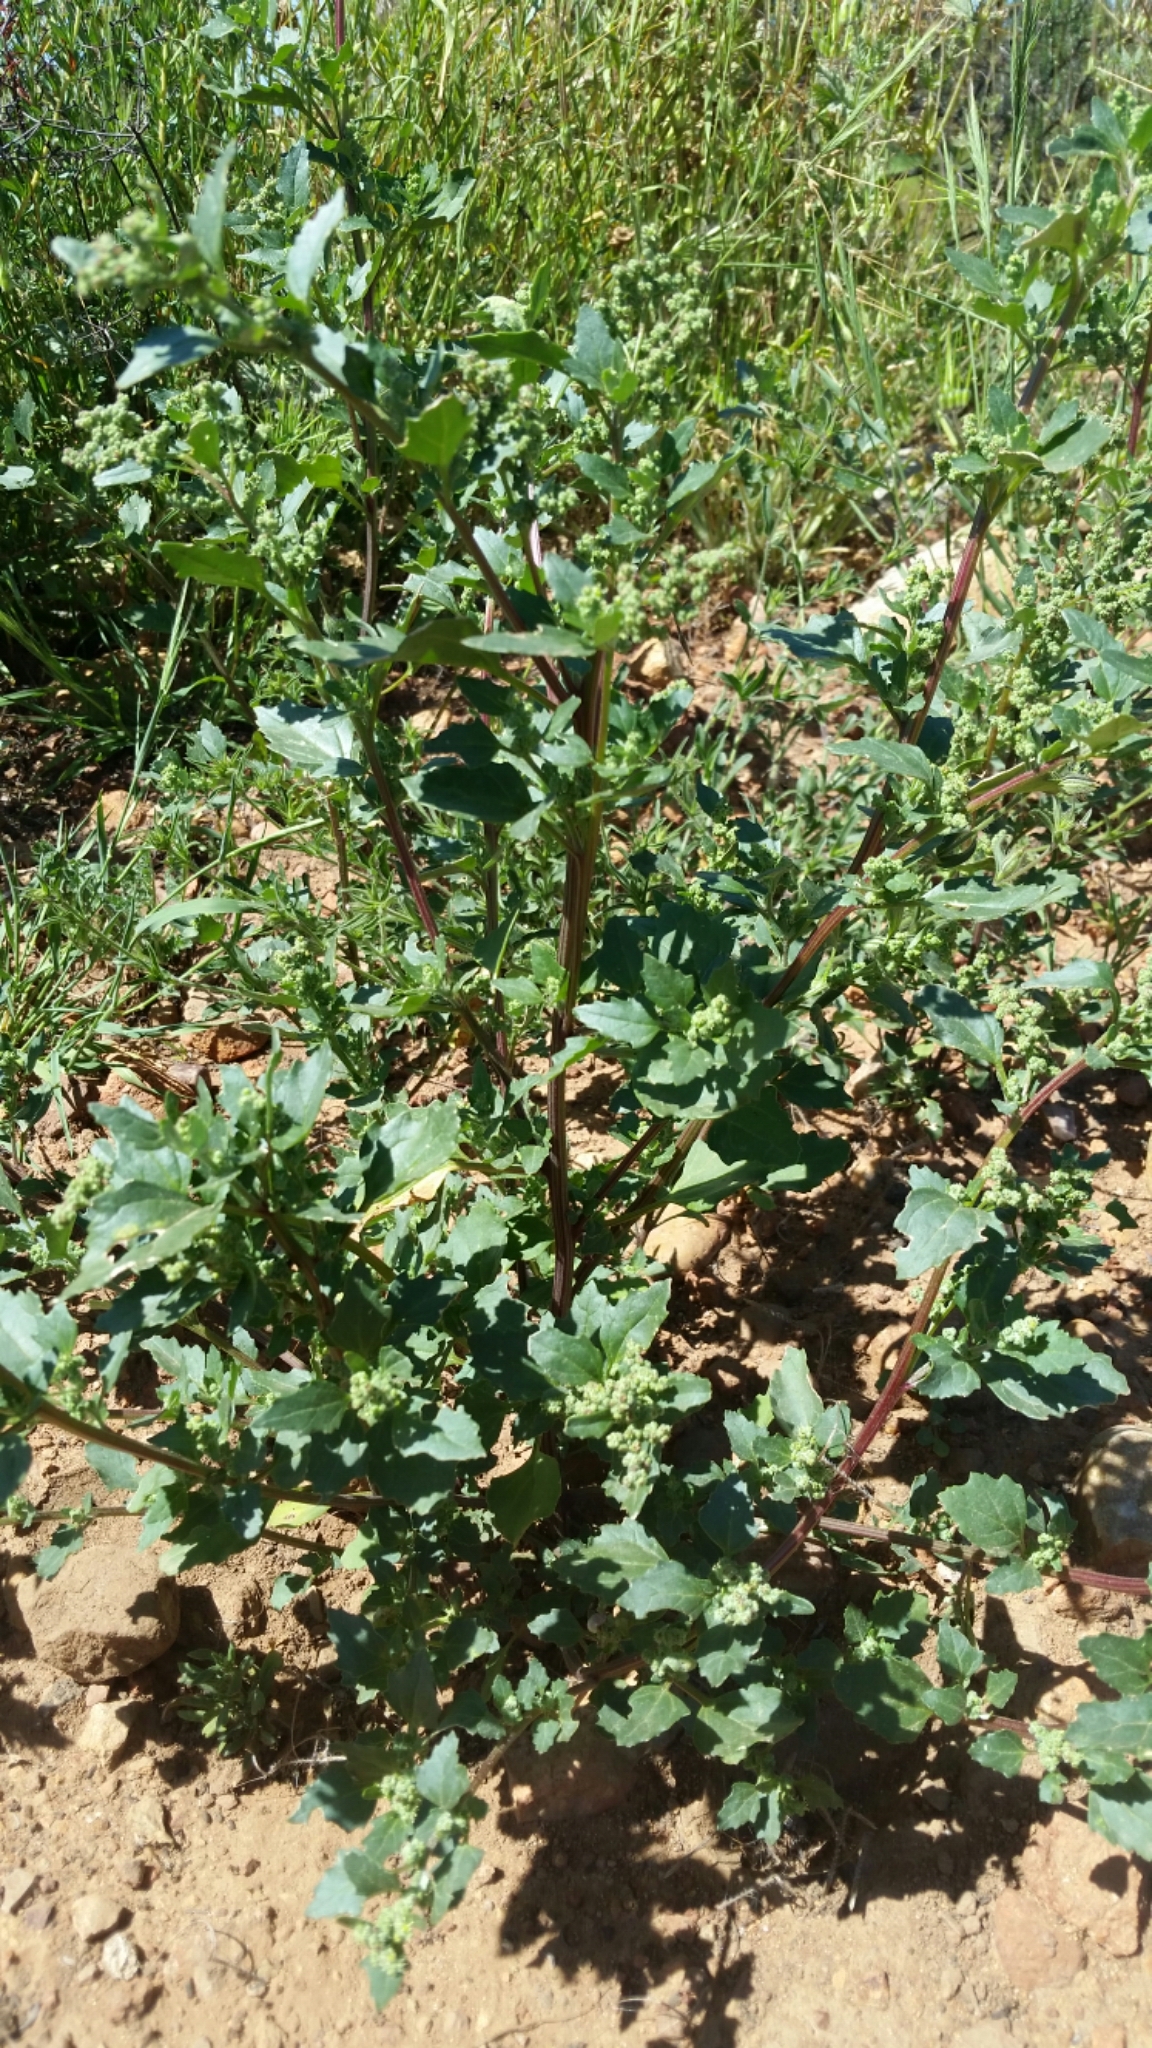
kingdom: Plantae
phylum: Tracheophyta
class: Magnoliopsida
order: Caryophyllales
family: Amaranthaceae
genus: Chenopodiastrum
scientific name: Chenopodiastrum murale
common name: Sowbane
